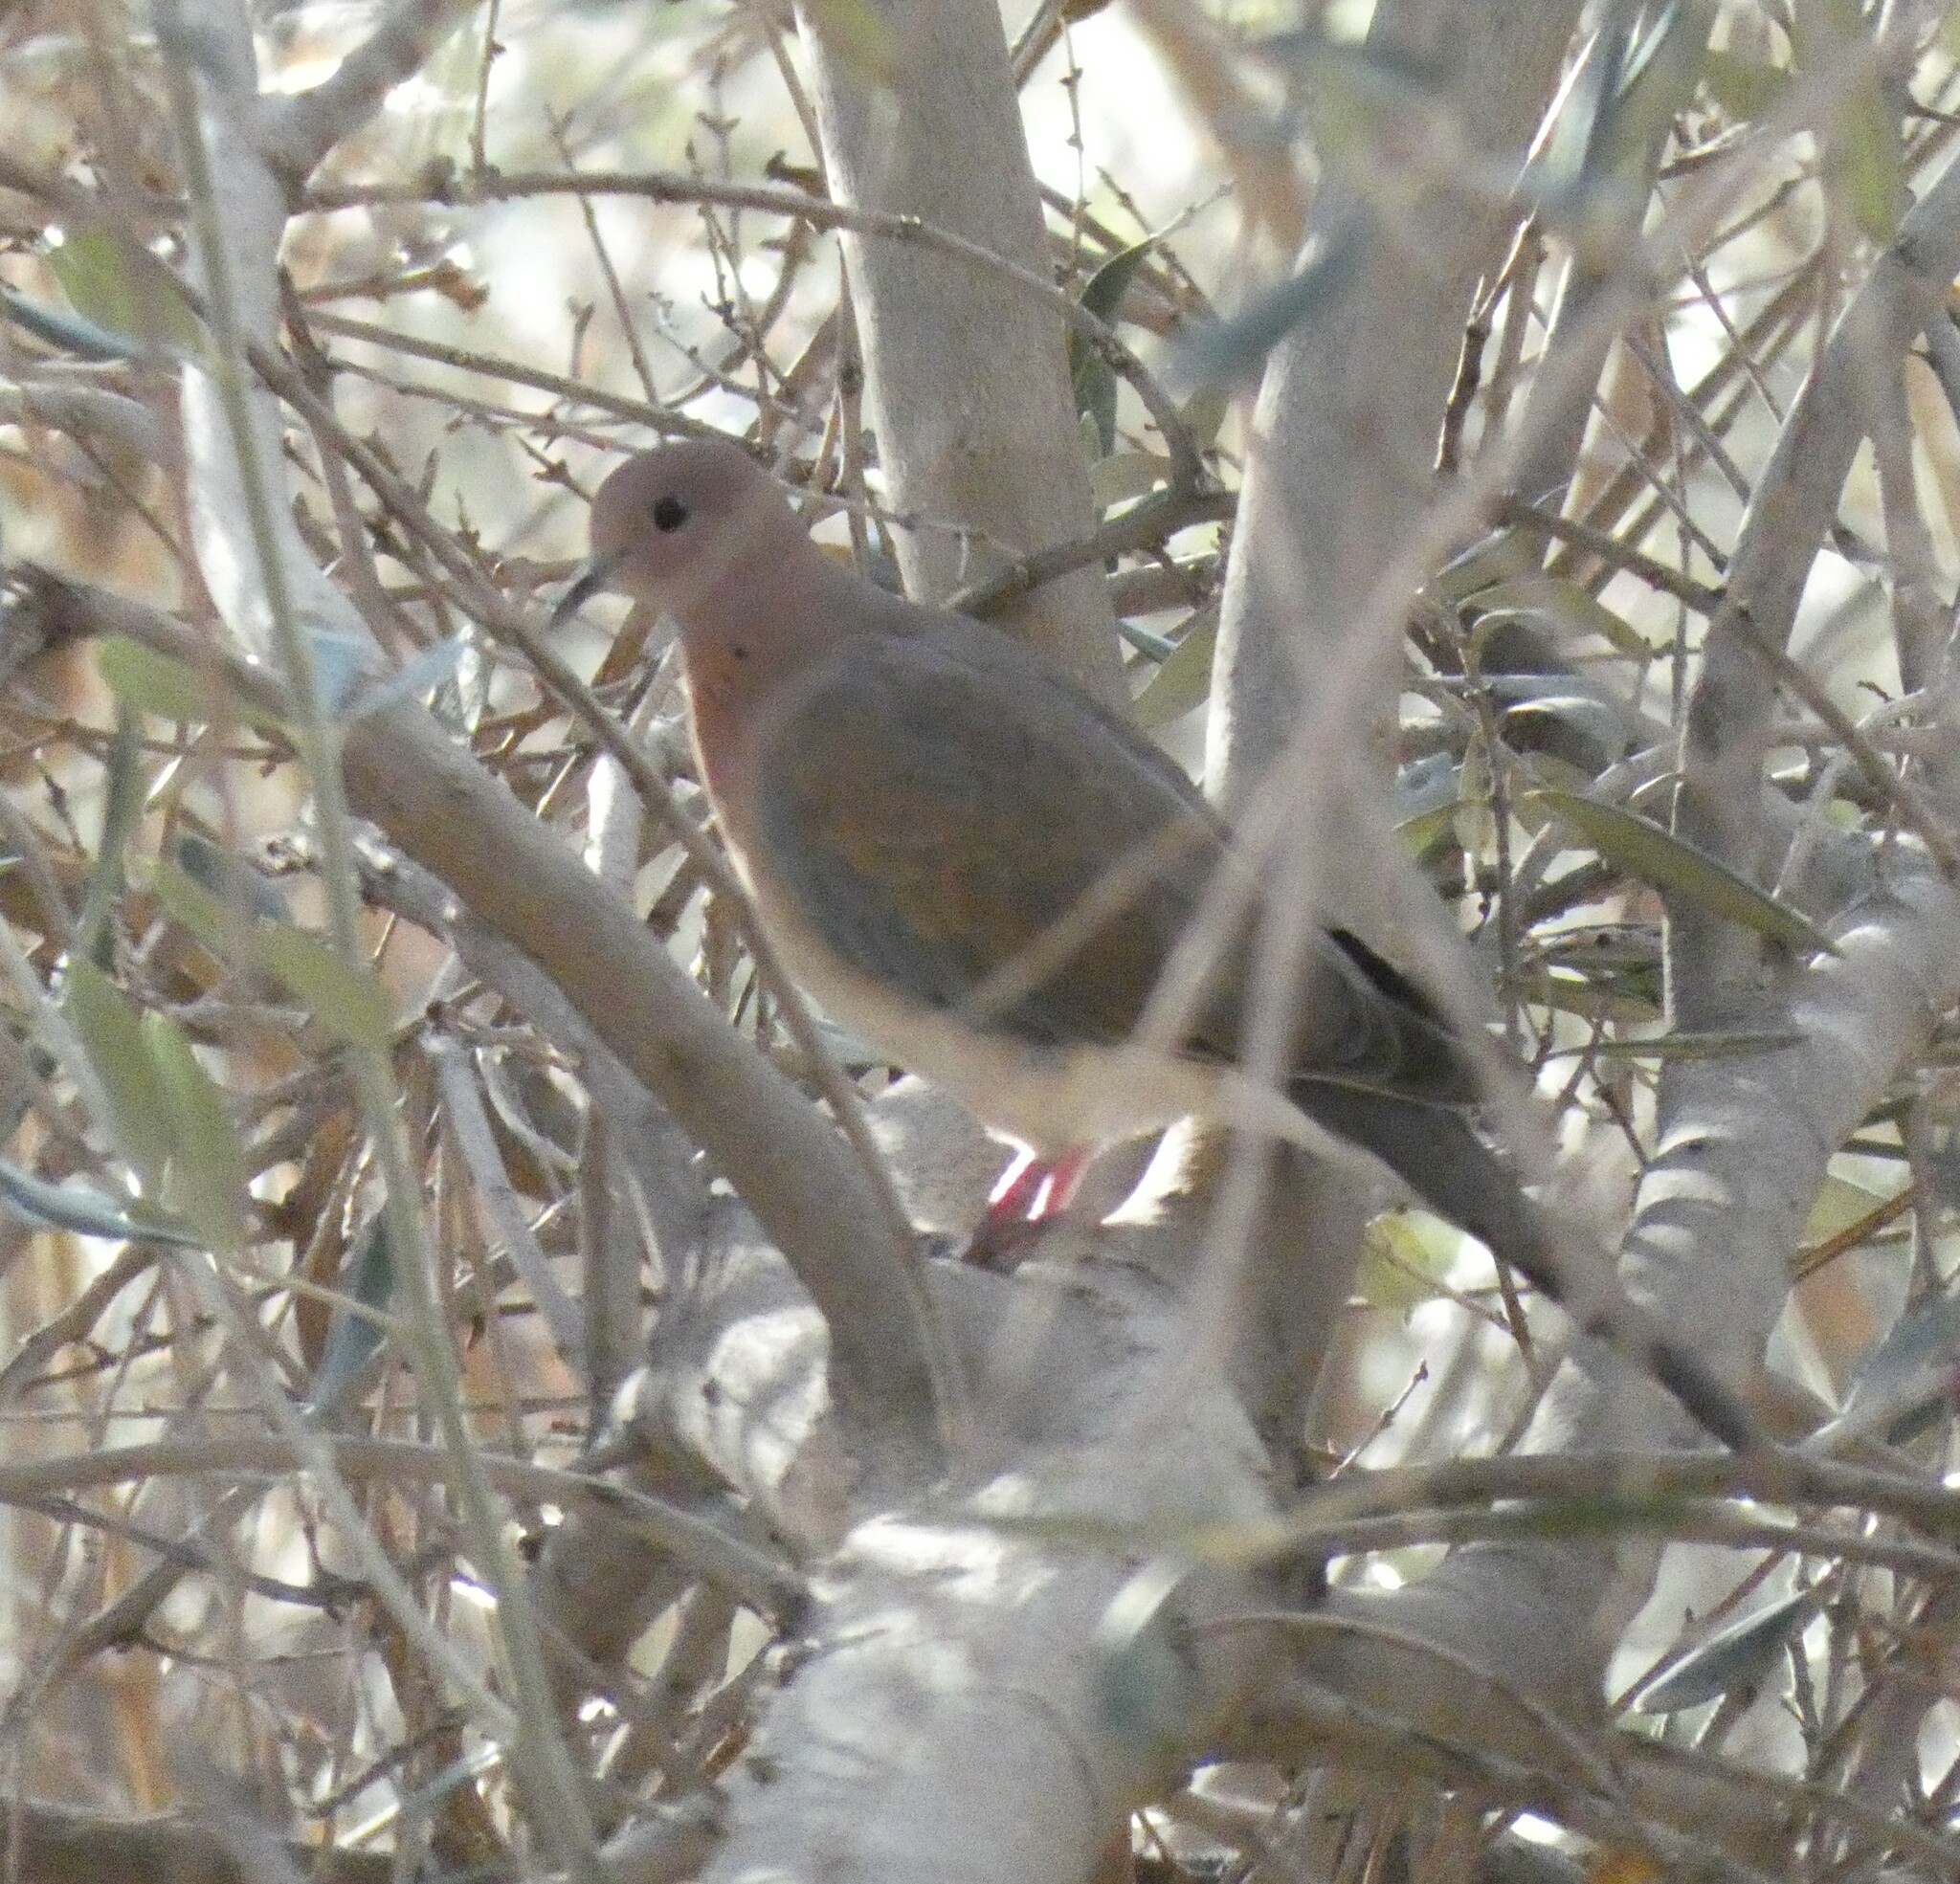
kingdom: Animalia
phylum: Chordata
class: Aves
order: Columbiformes
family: Columbidae
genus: Spilopelia
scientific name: Spilopelia senegalensis
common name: Laughing dove
